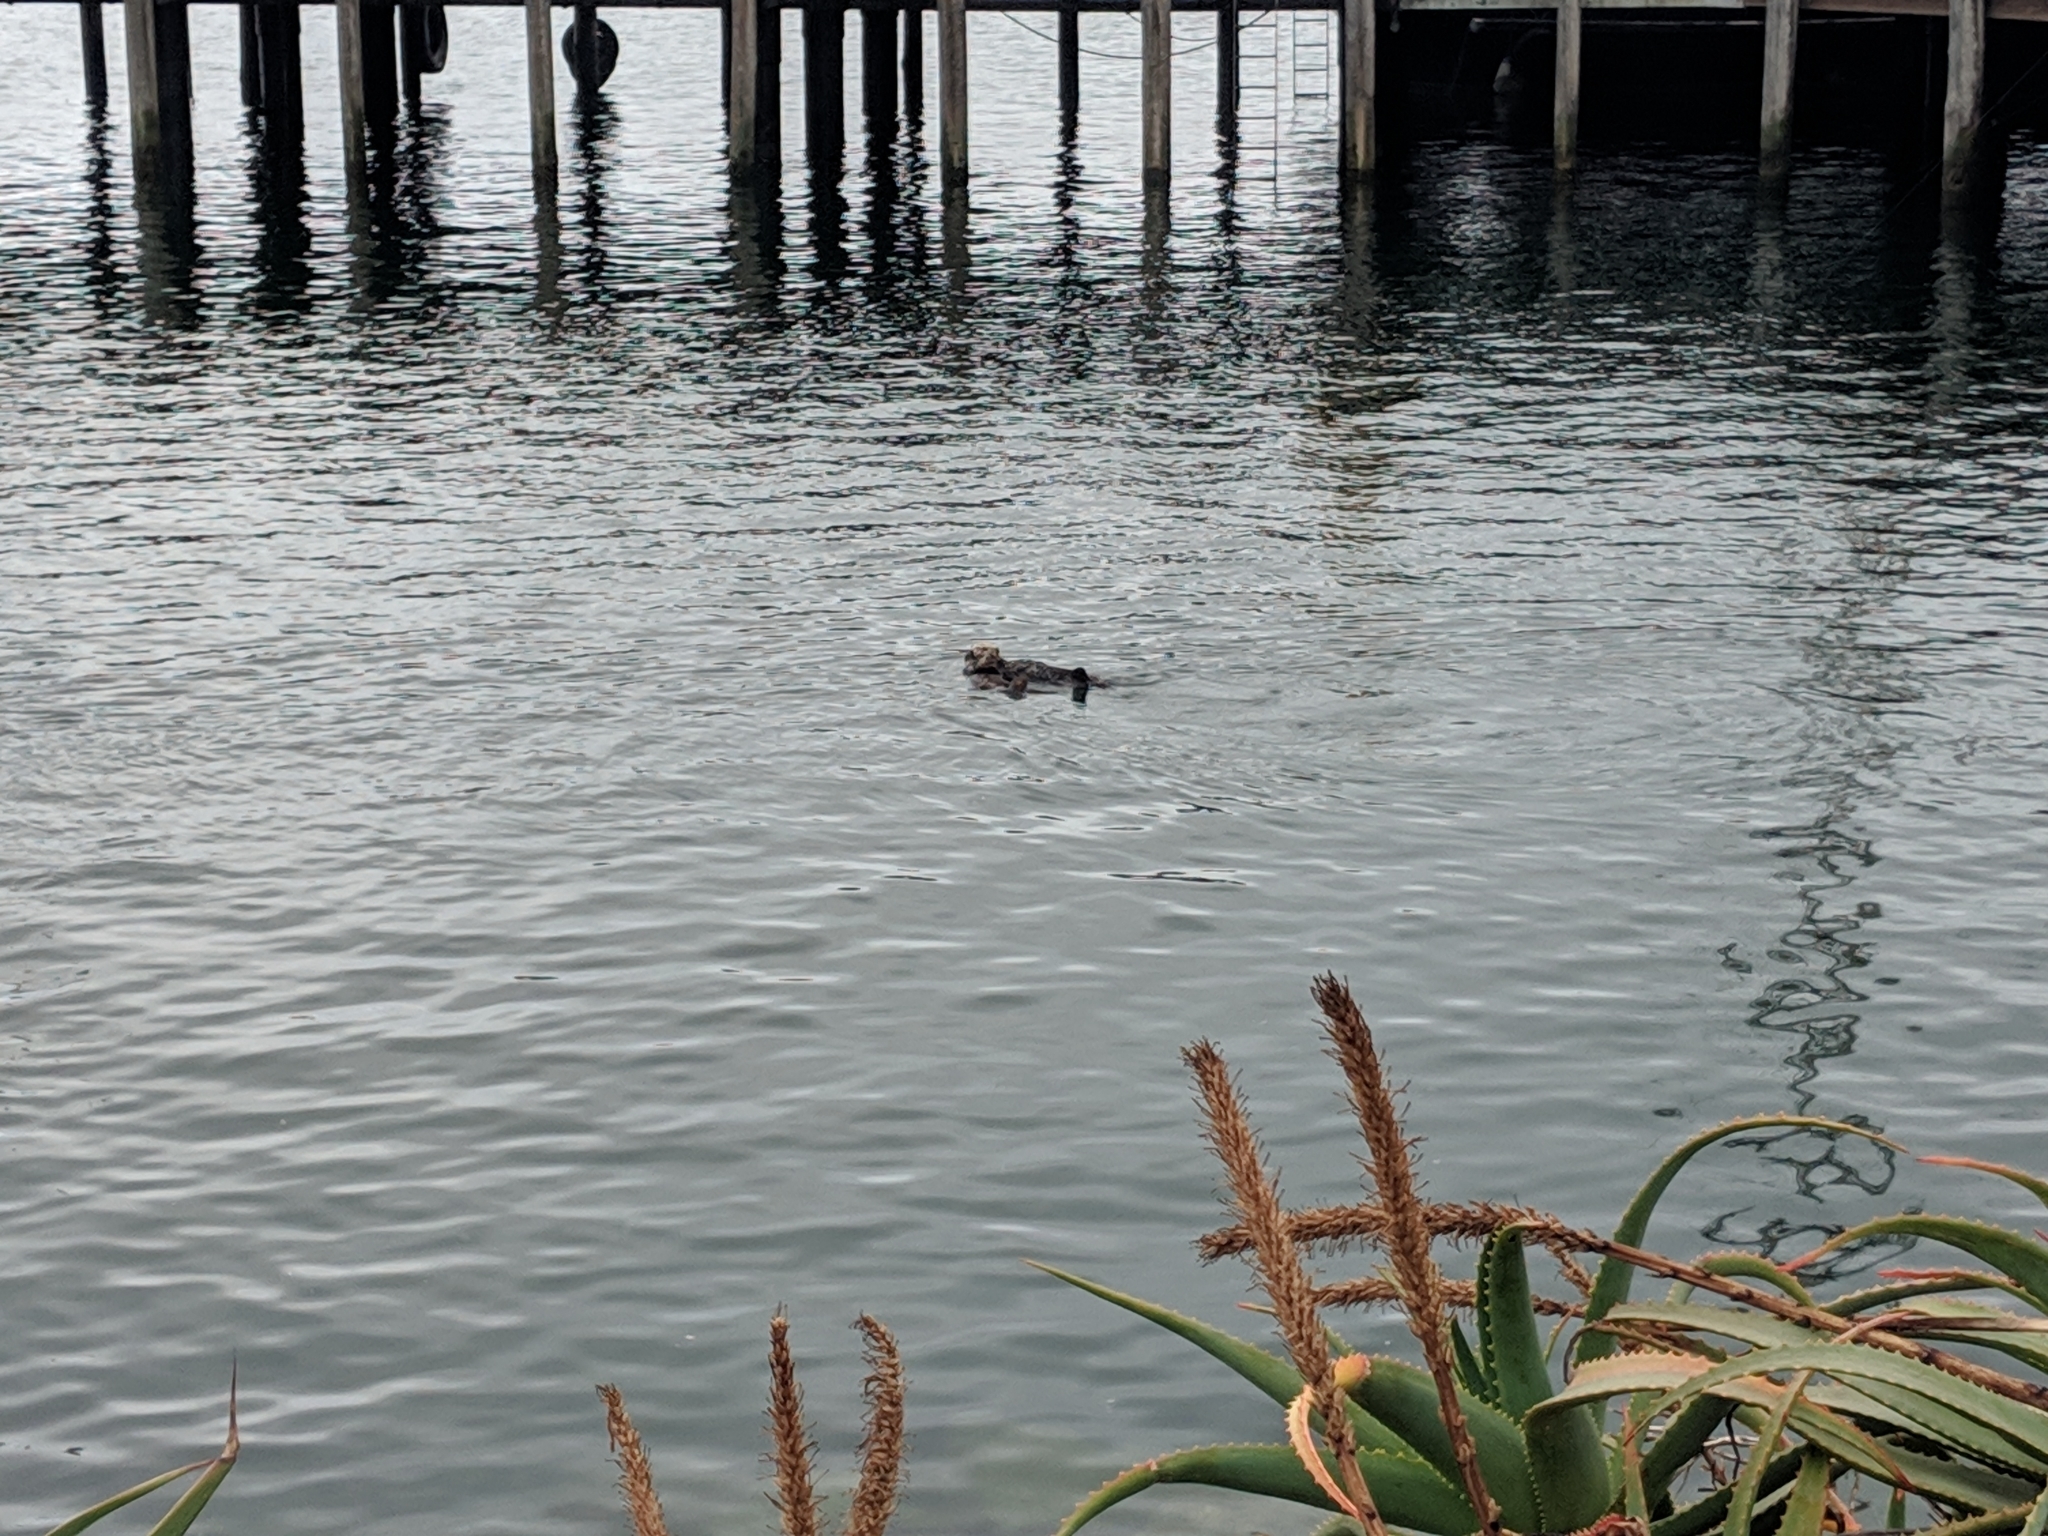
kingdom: Animalia
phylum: Chordata
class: Mammalia
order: Carnivora
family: Mustelidae
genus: Enhydra
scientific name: Enhydra lutris
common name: Sea otter
